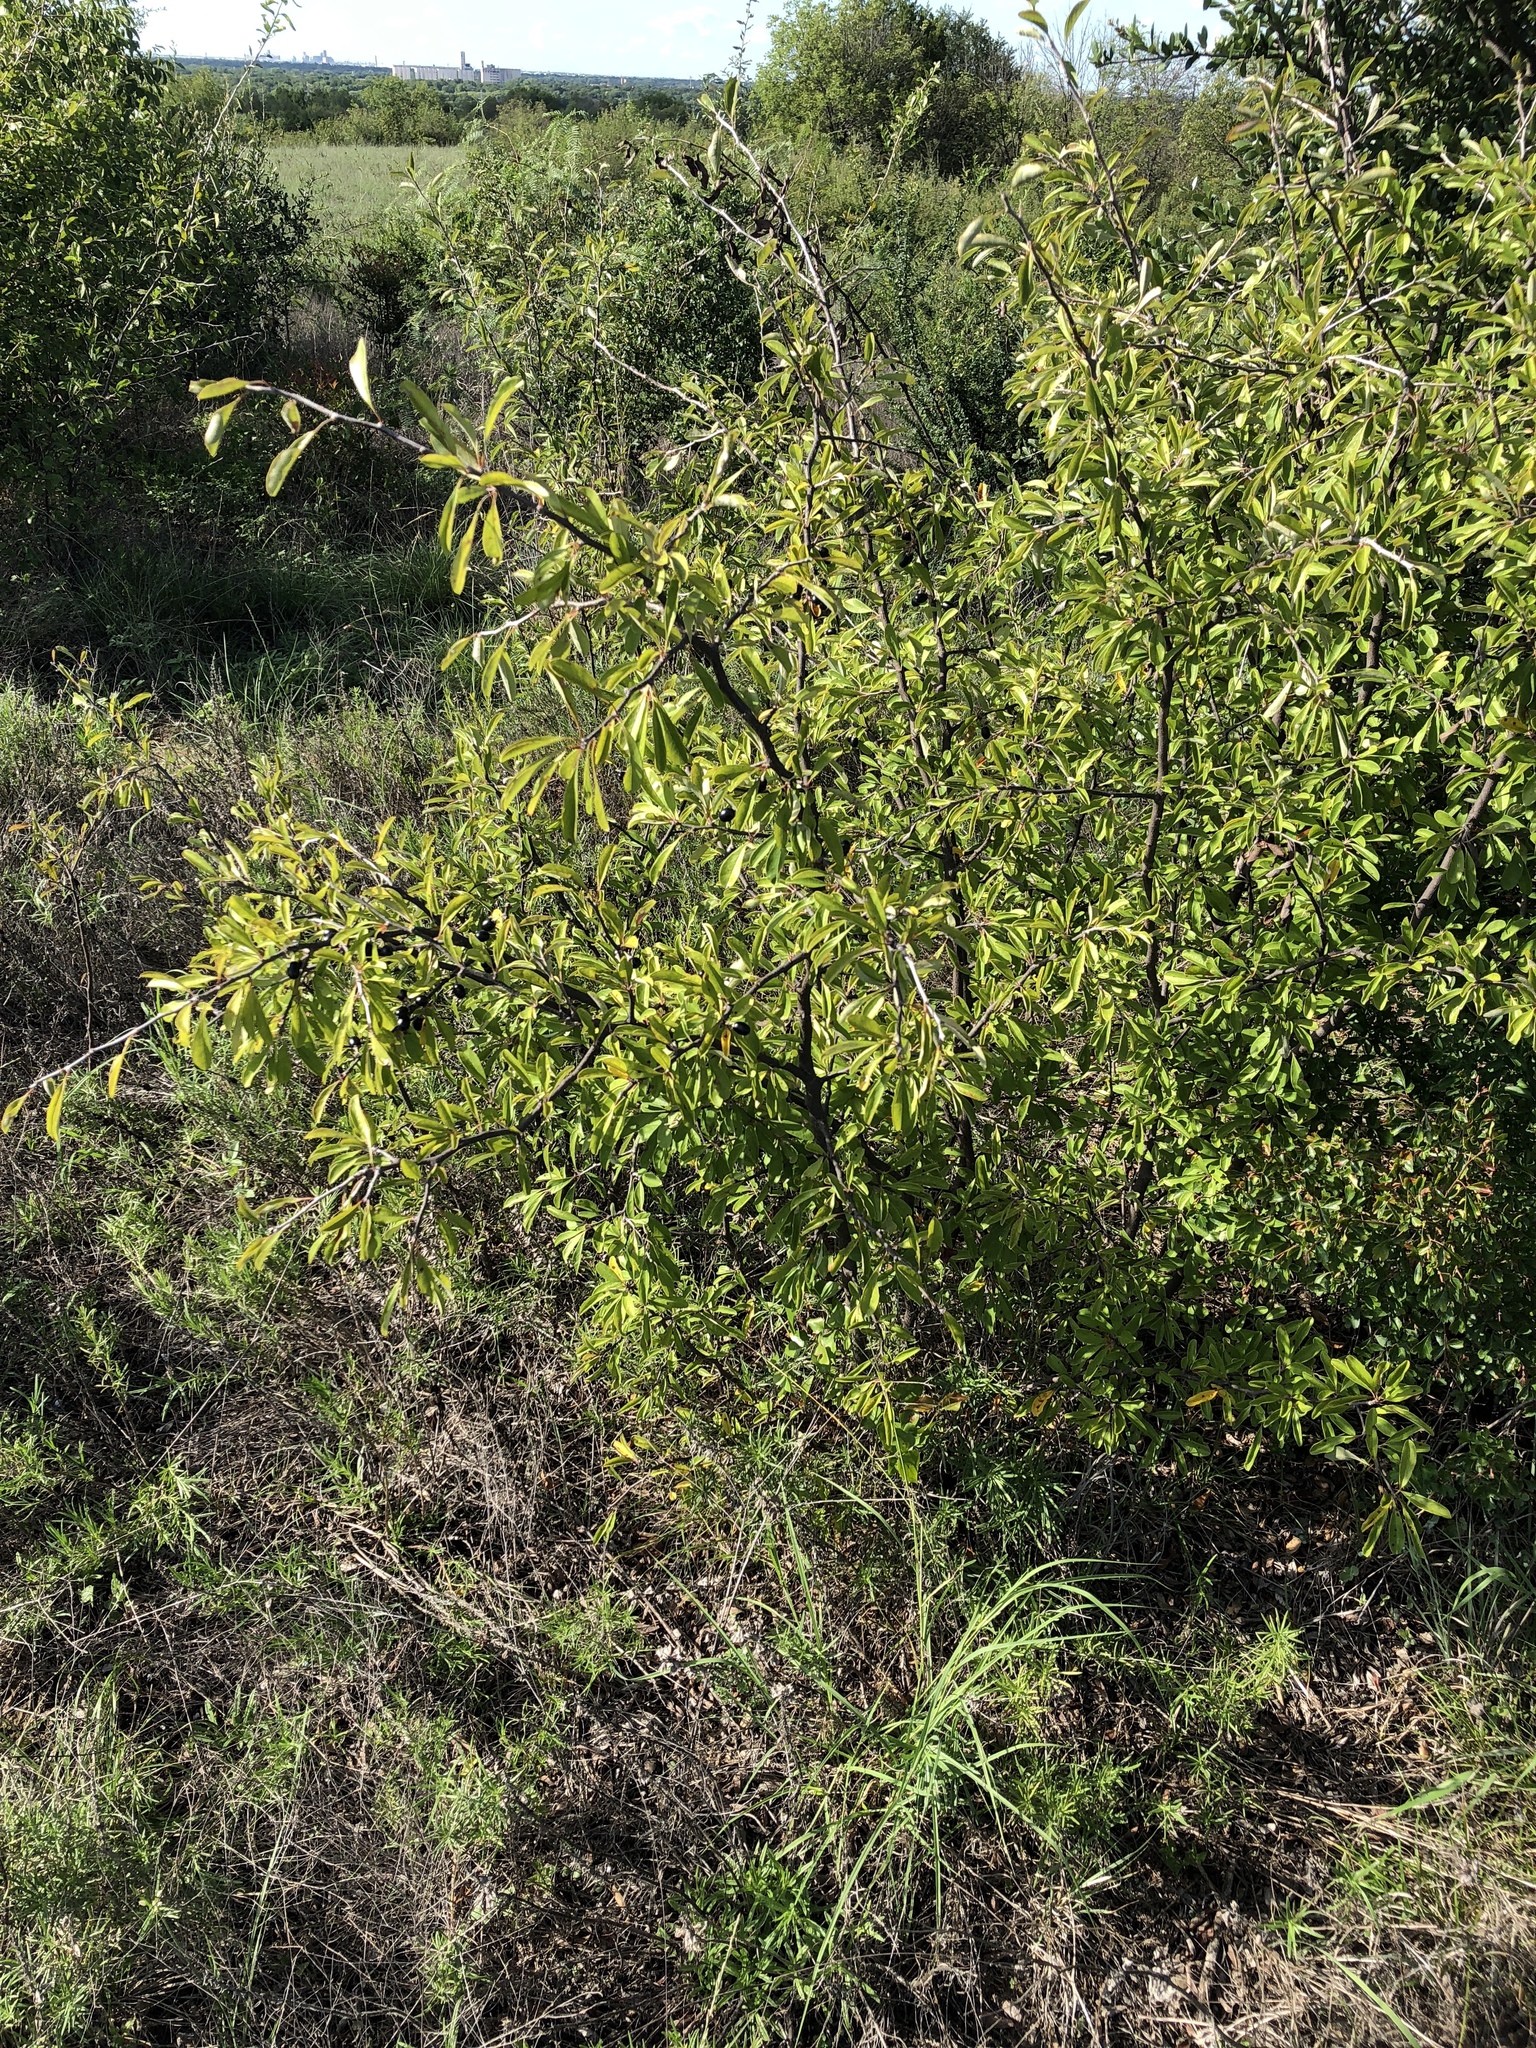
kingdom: Plantae
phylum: Tracheophyta
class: Magnoliopsida
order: Ericales
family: Sapotaceae
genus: Sideroxylon
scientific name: Sideroxylon lanuginosum
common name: Chittamwood
